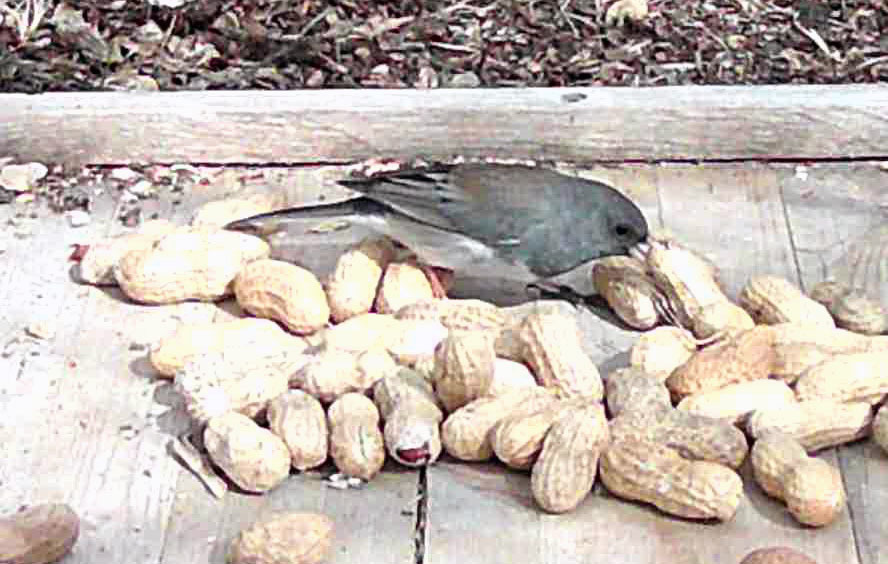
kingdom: Animalia
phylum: Chordata
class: Aves
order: Passeriformes
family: Passerellidae
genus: Junco
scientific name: Junco hyemalis
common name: Dark-eyed junco
